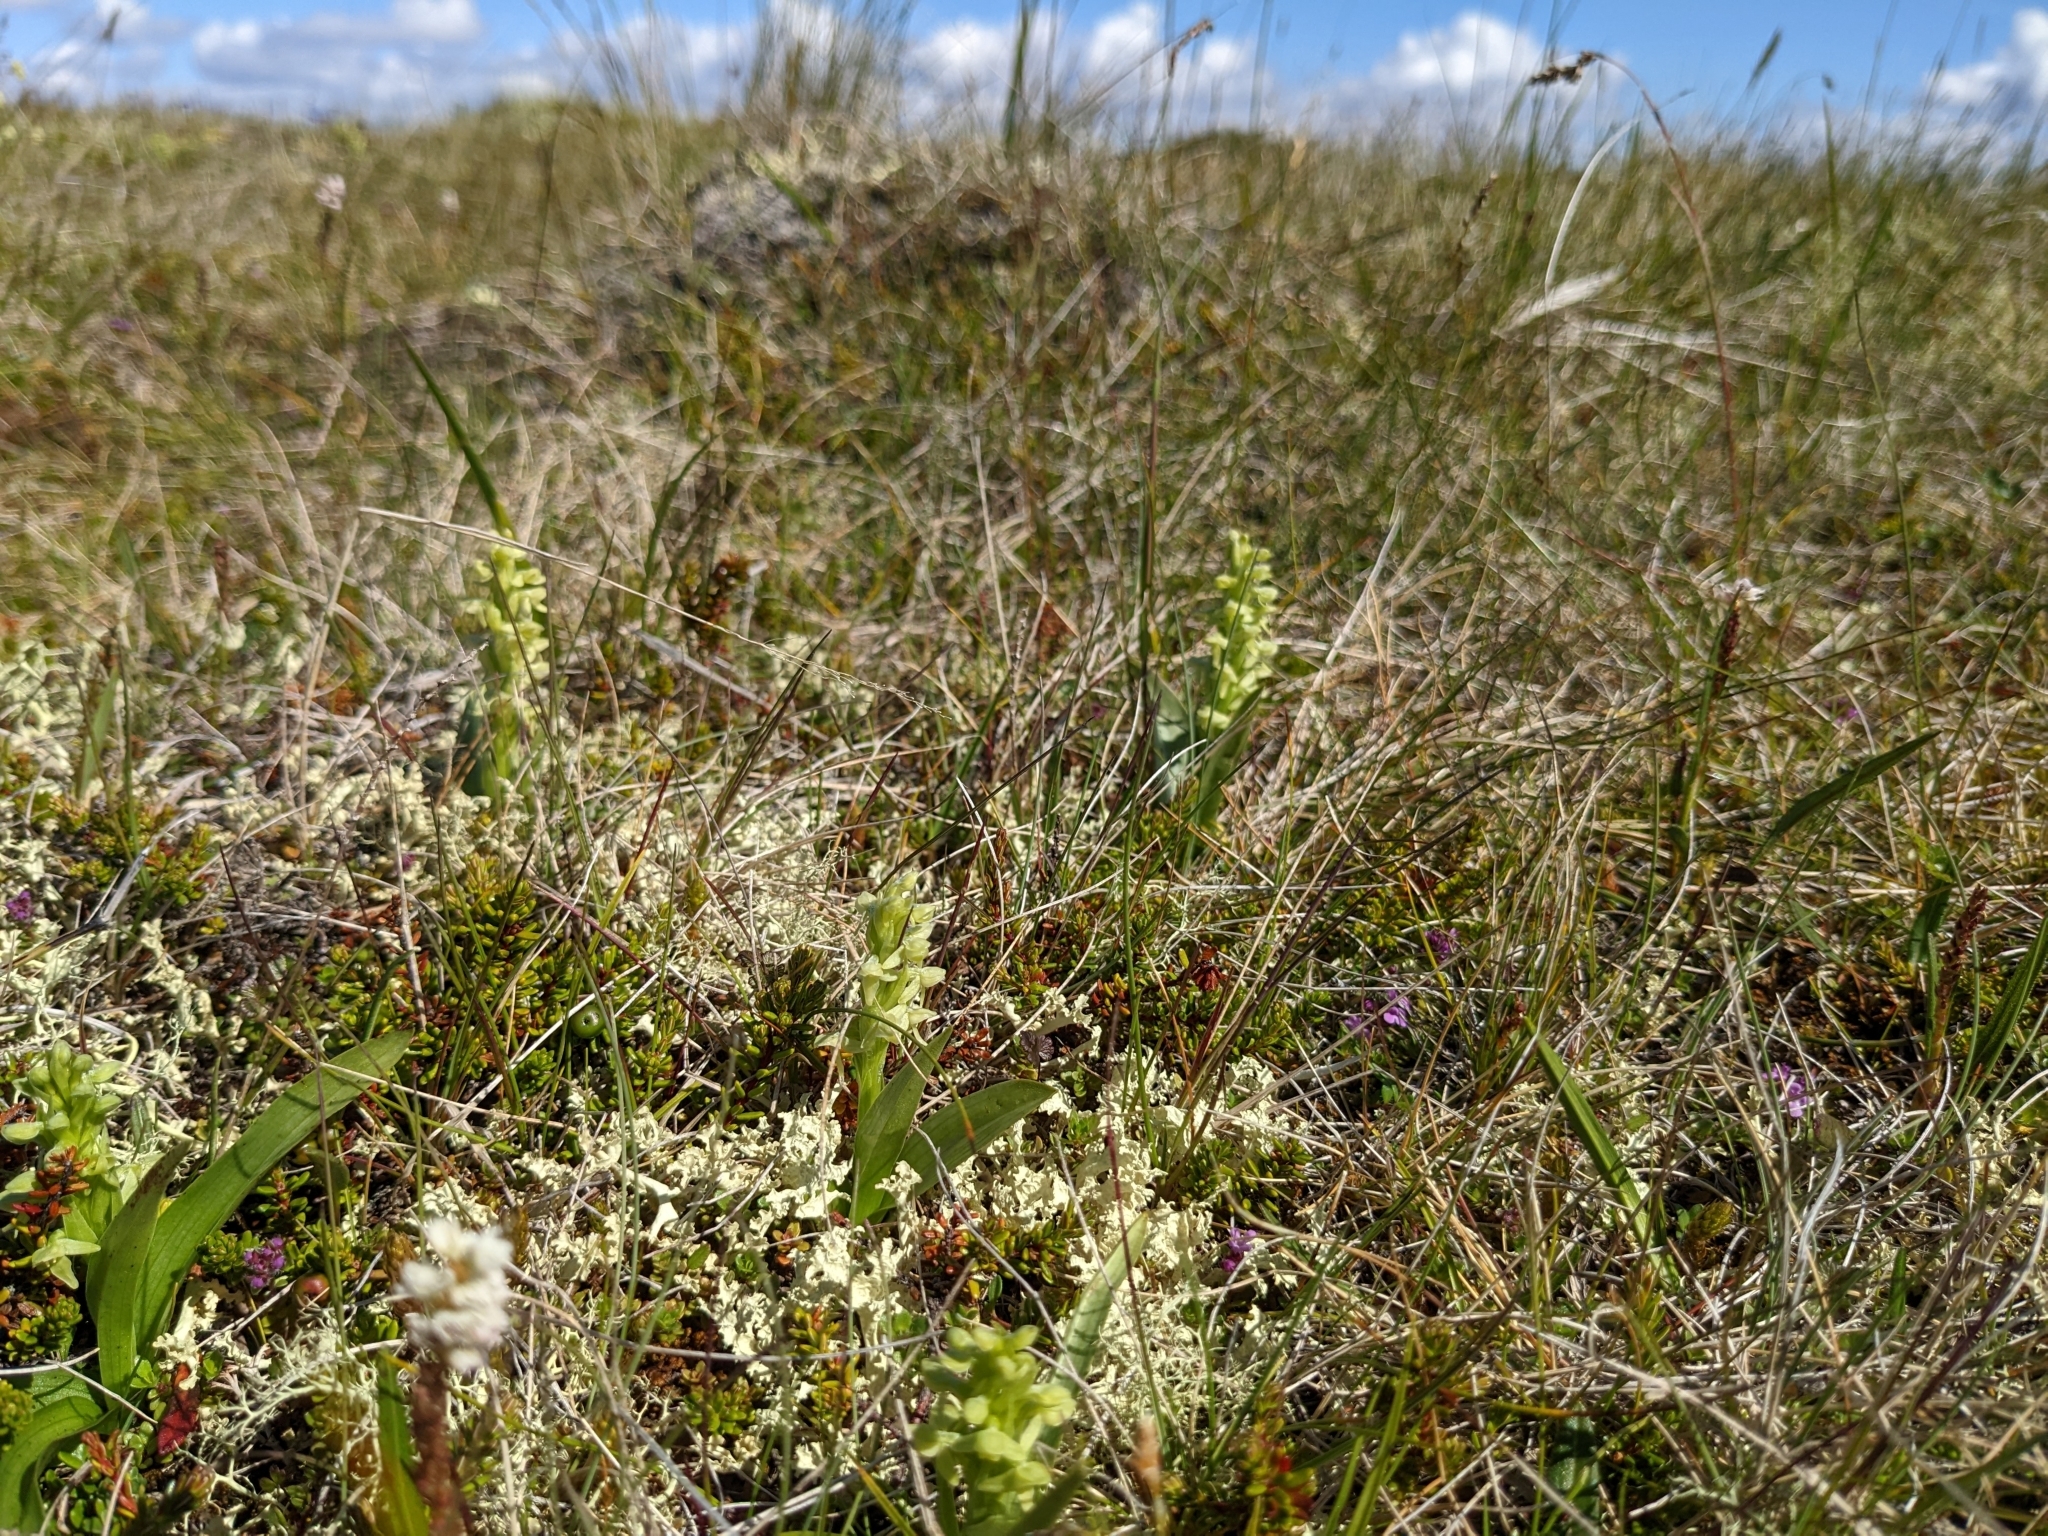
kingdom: Plantae
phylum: Tracheophyta
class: Liliopsida
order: Asparagales
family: Orchidaceae
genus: Platanthera
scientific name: Platanthera hyperborea
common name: Northern green orchid
